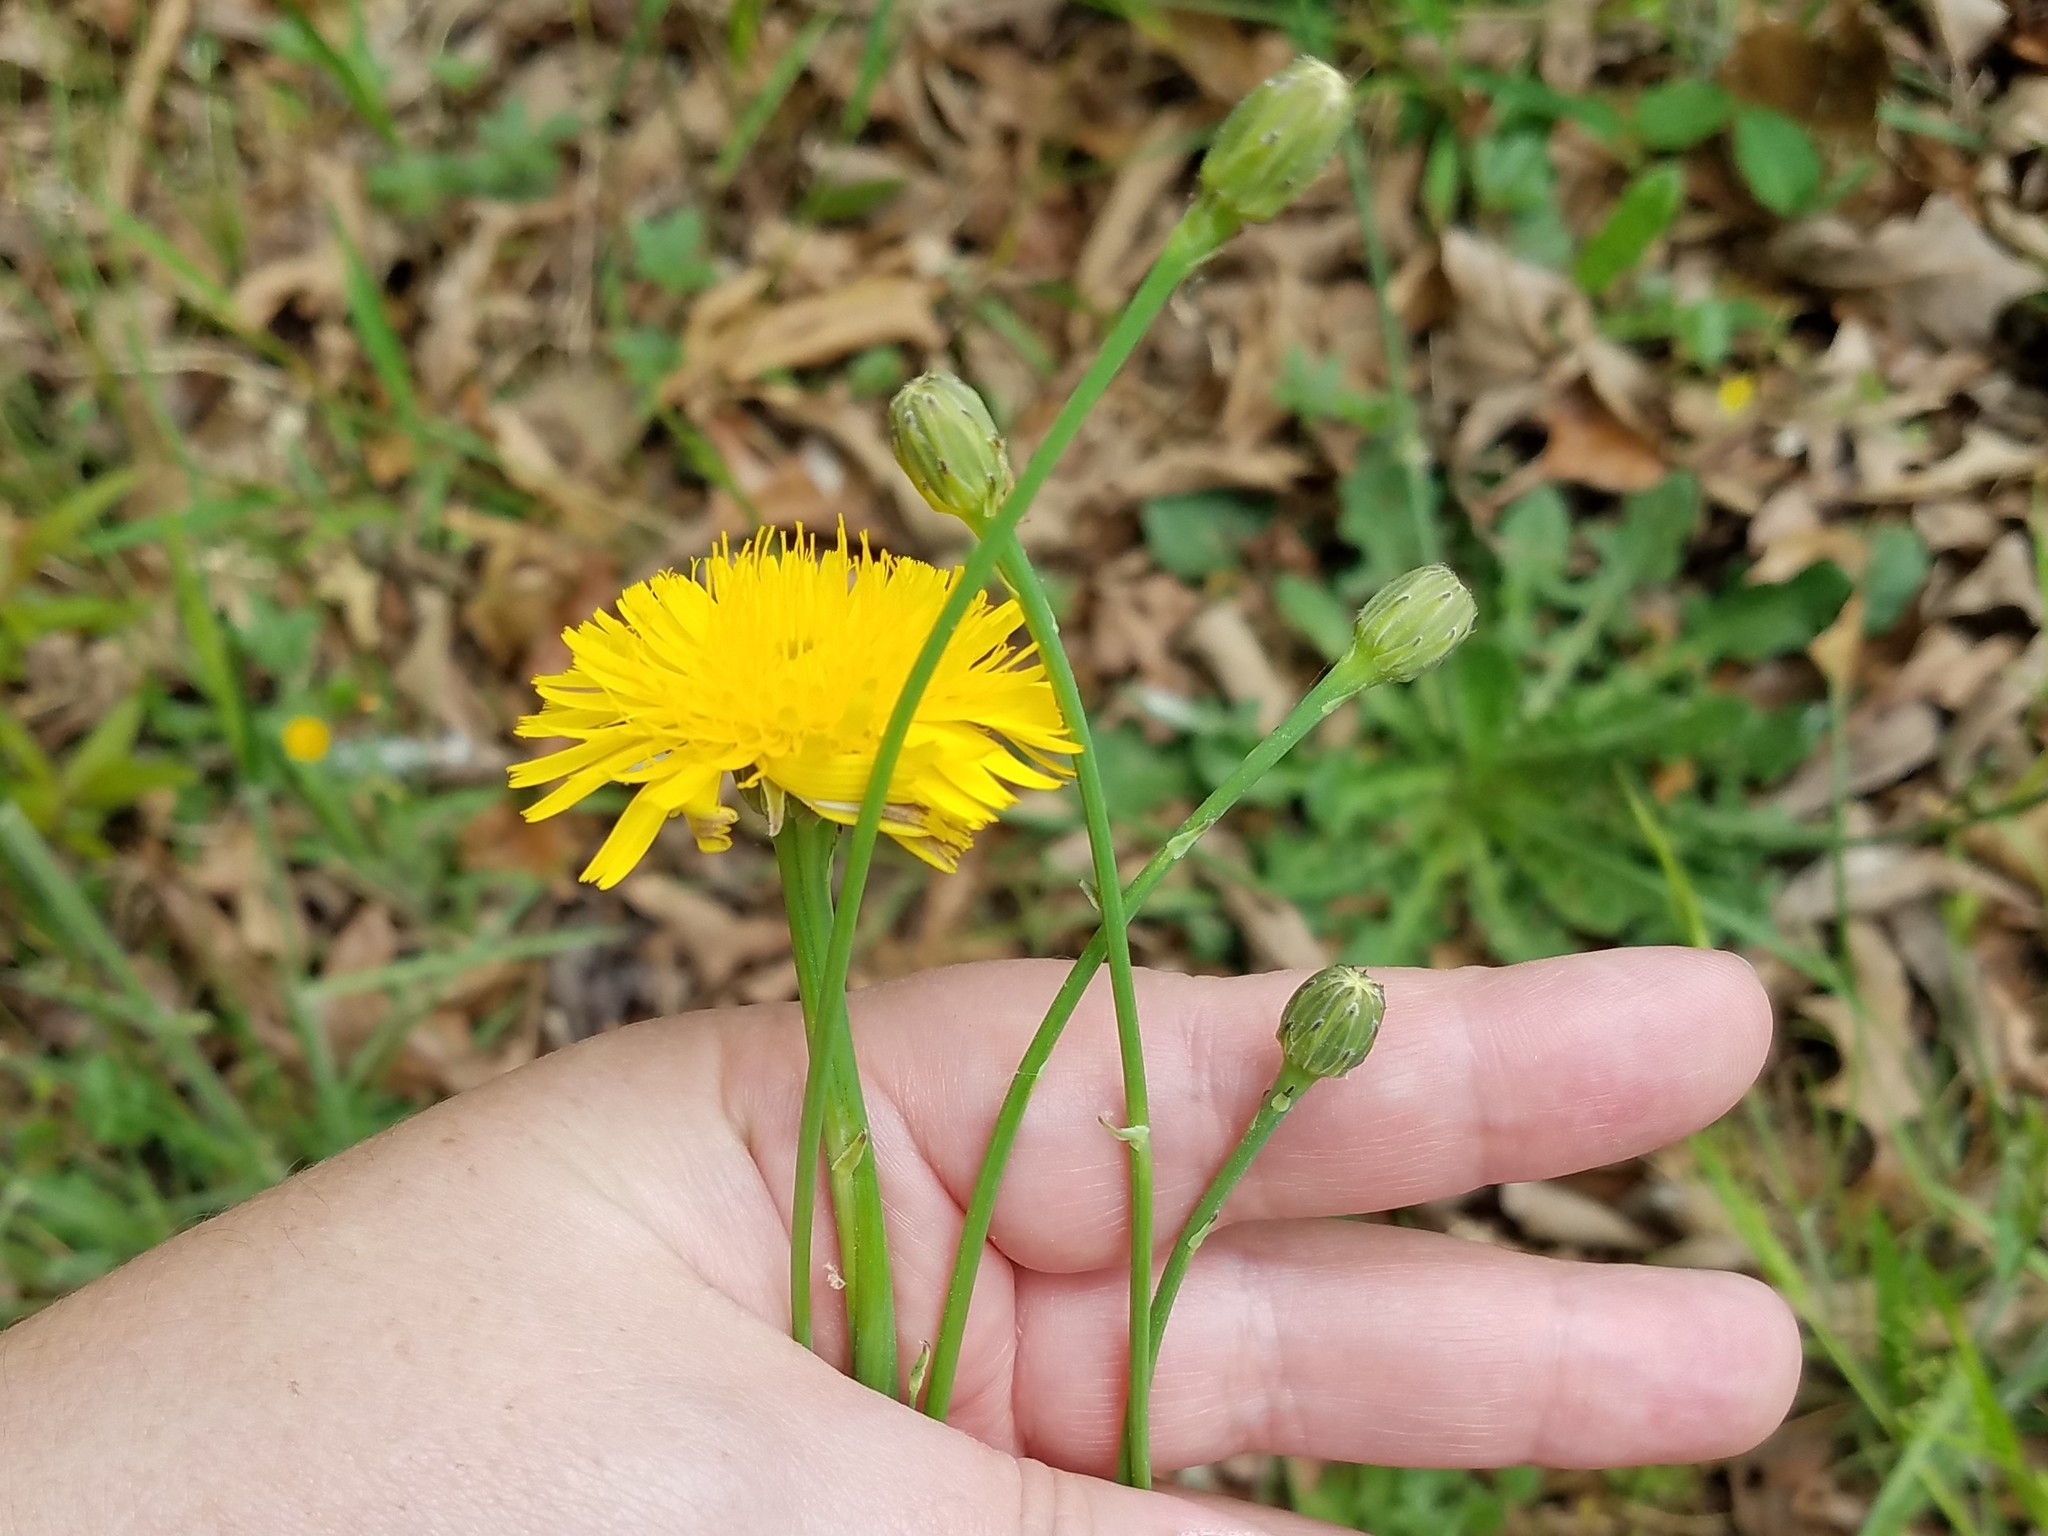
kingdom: Plantae
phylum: Tracheophyta
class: Magnoliopsida
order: Asterales
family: Asteraceae
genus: Hypochaeris
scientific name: Hypochaeris radicata
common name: Flatweed
